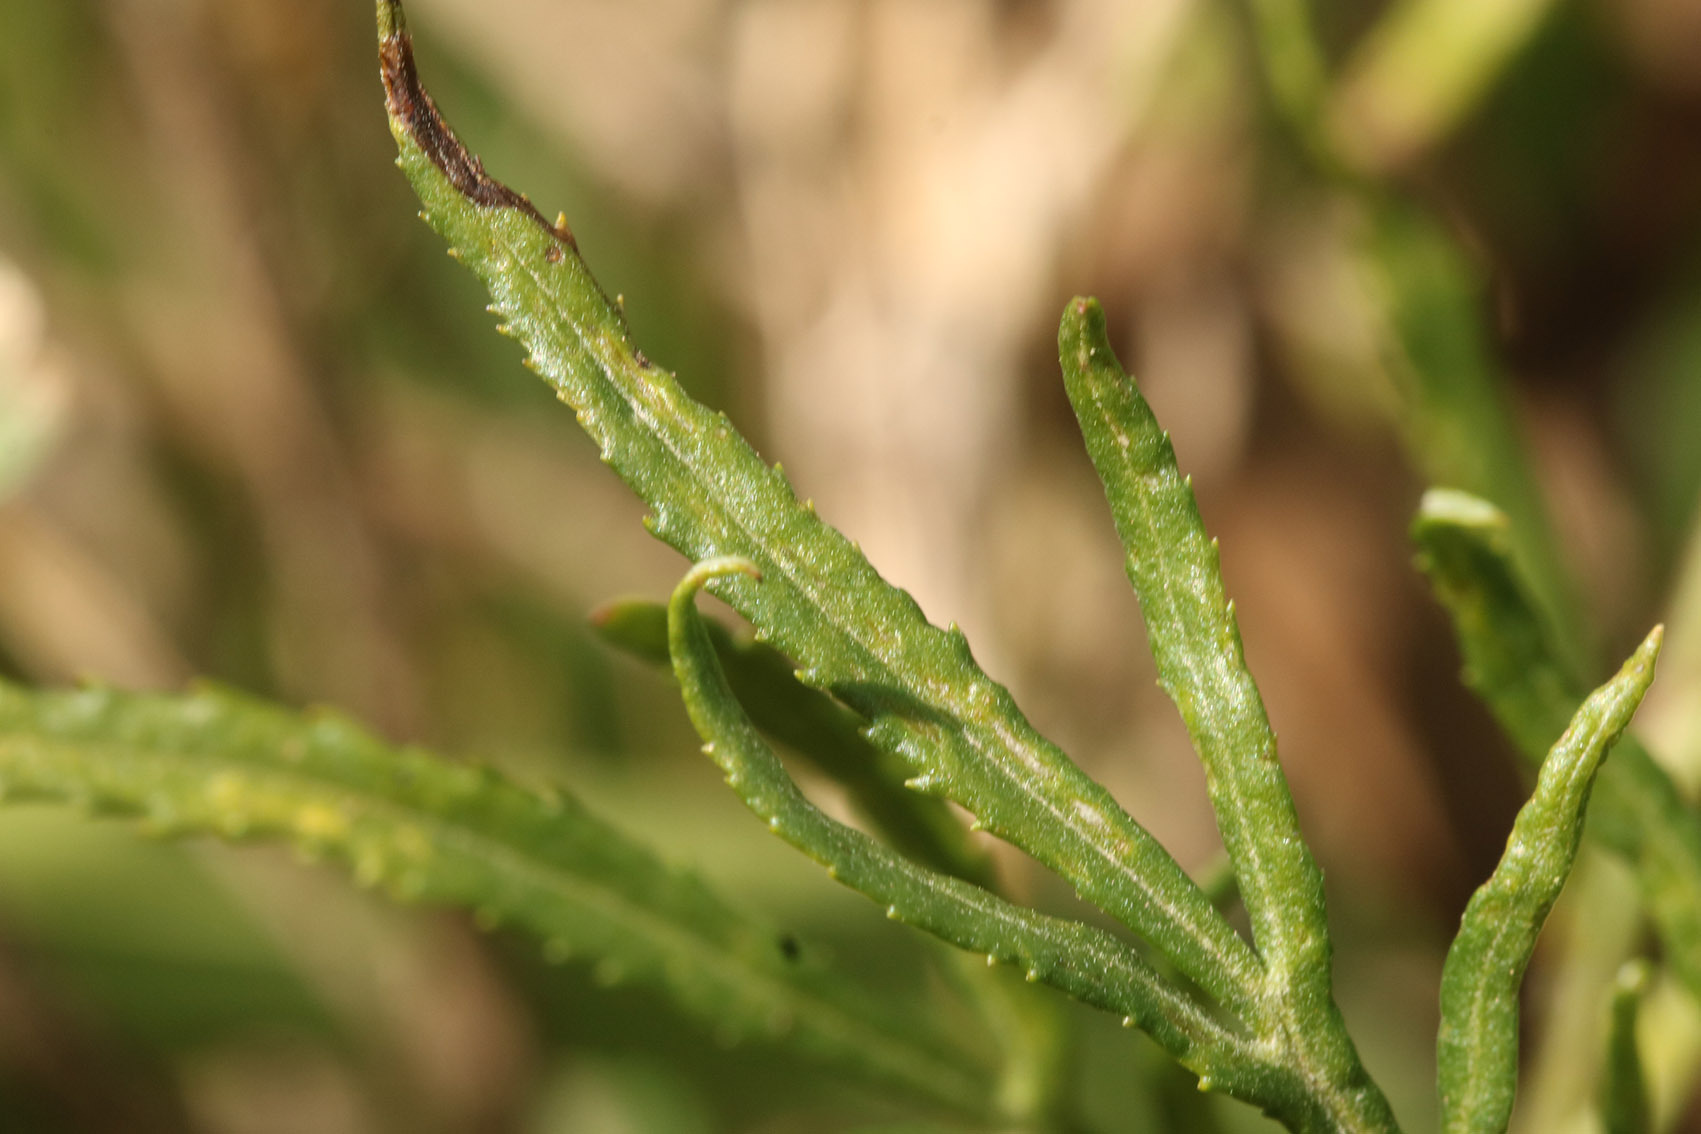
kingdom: Plantae
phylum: Tracheophyta
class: Magnoliopsida
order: Asterales
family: Asteraceae
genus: Senecio
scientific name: Senecio brasiliensis
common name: Hemp-leaf ragwort
